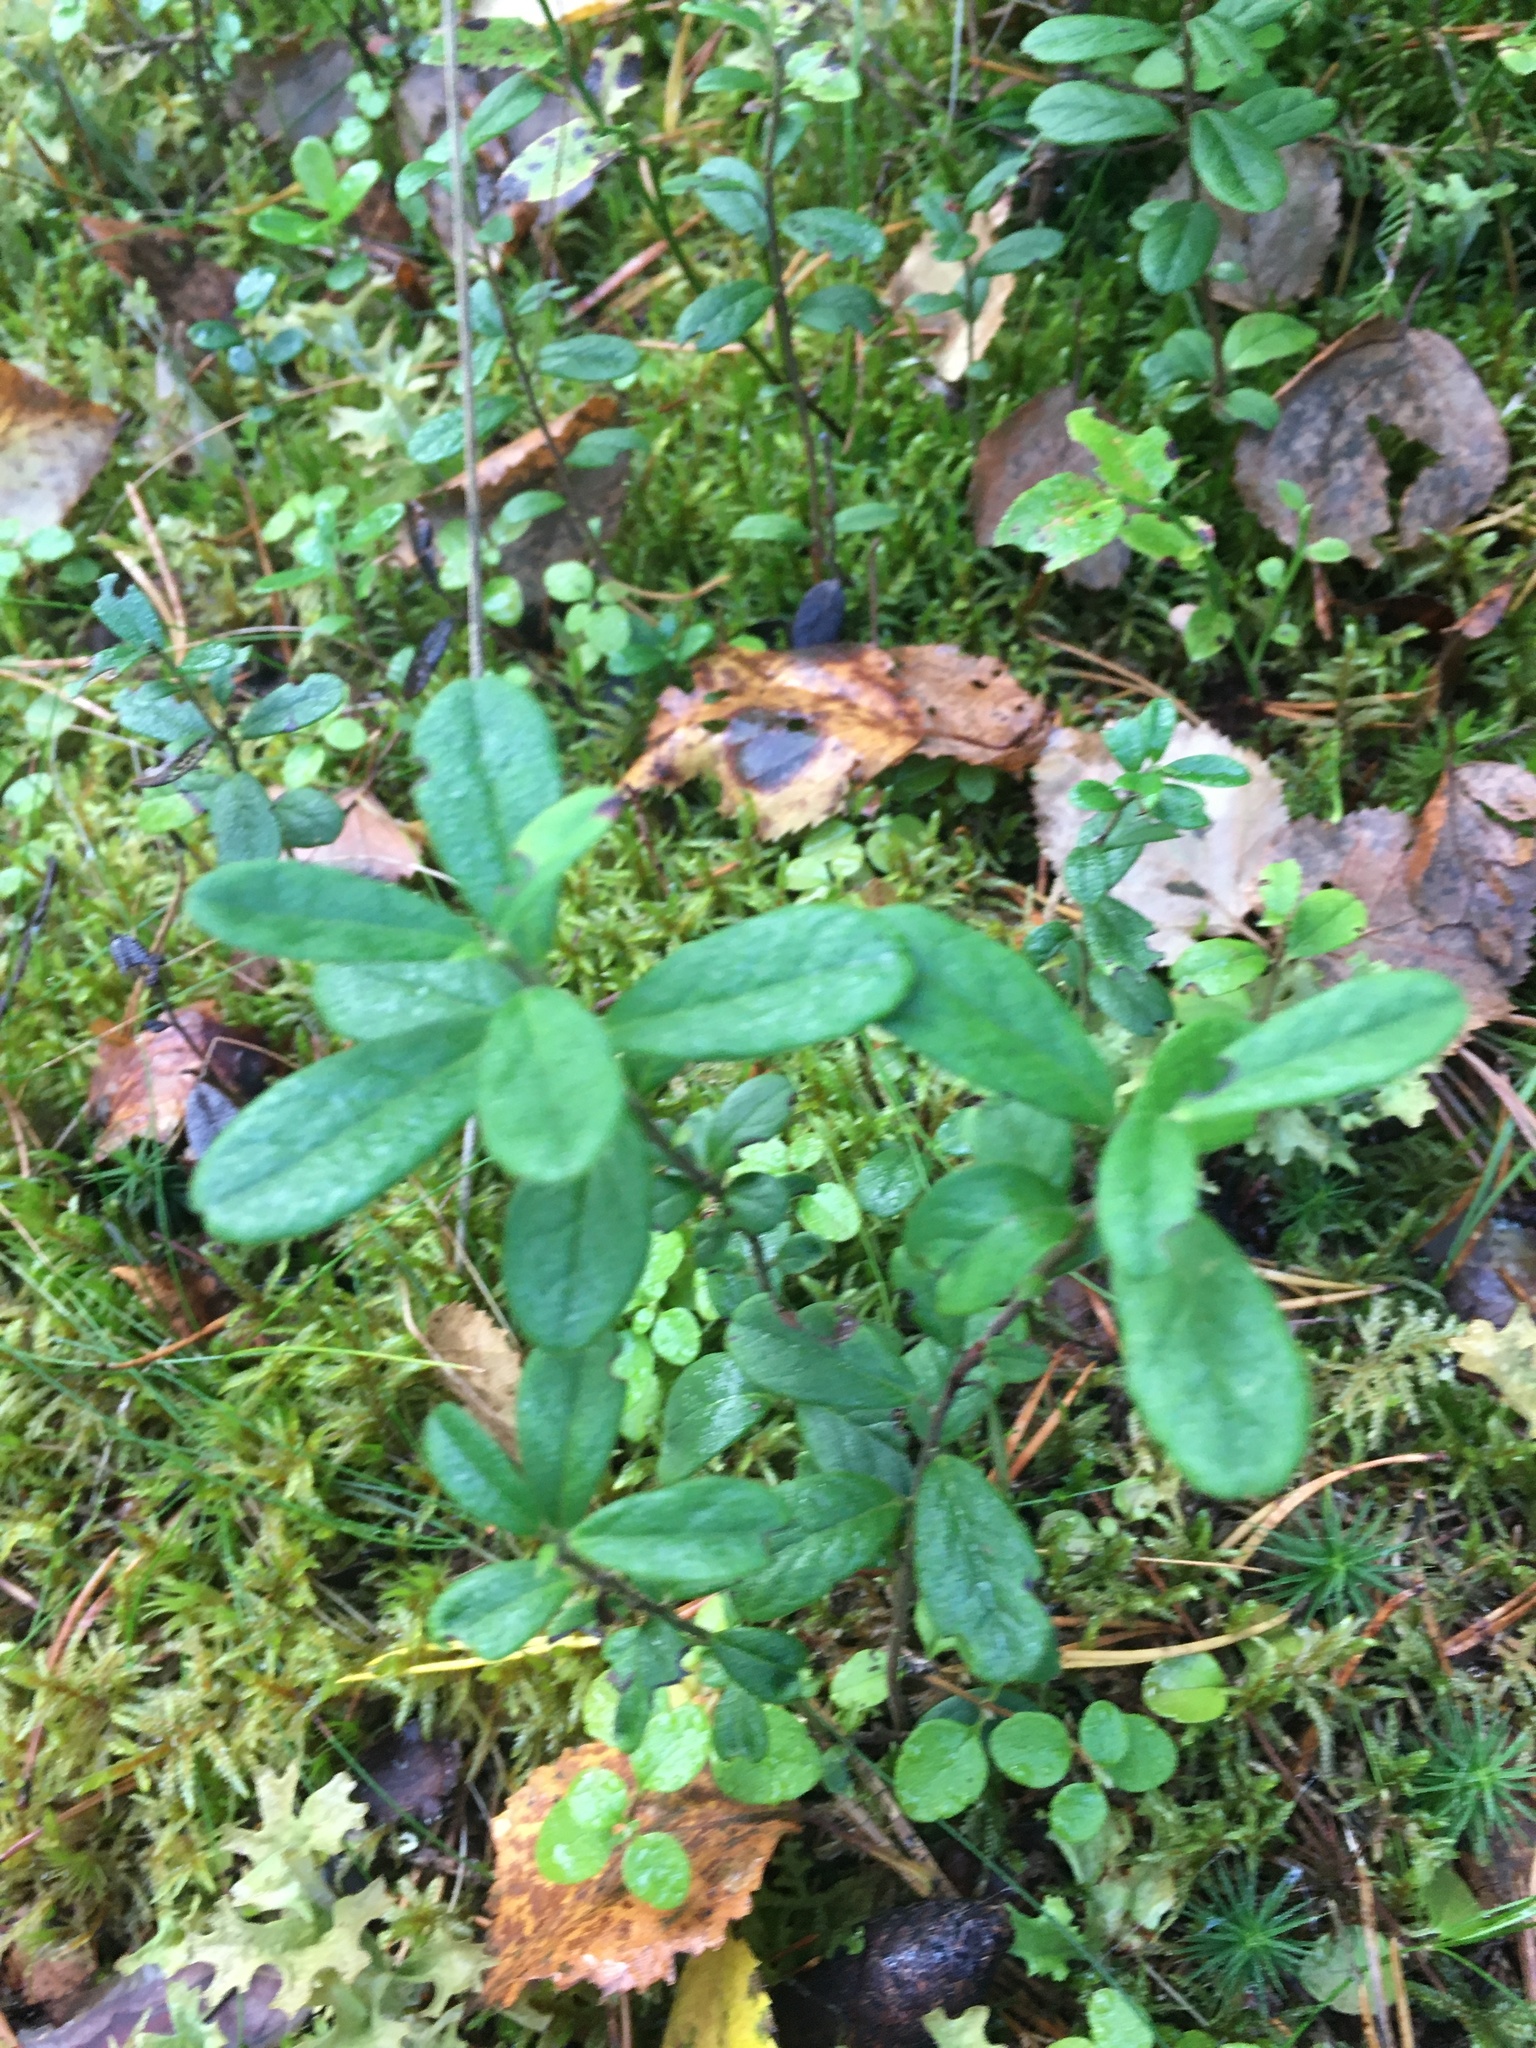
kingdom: Plantae
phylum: Tracheophyta
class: Magnoliopsida
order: Ericales
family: Ericaceae
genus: Vaccinium
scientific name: Vaccinium vitis-idaea
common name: Cowberry
